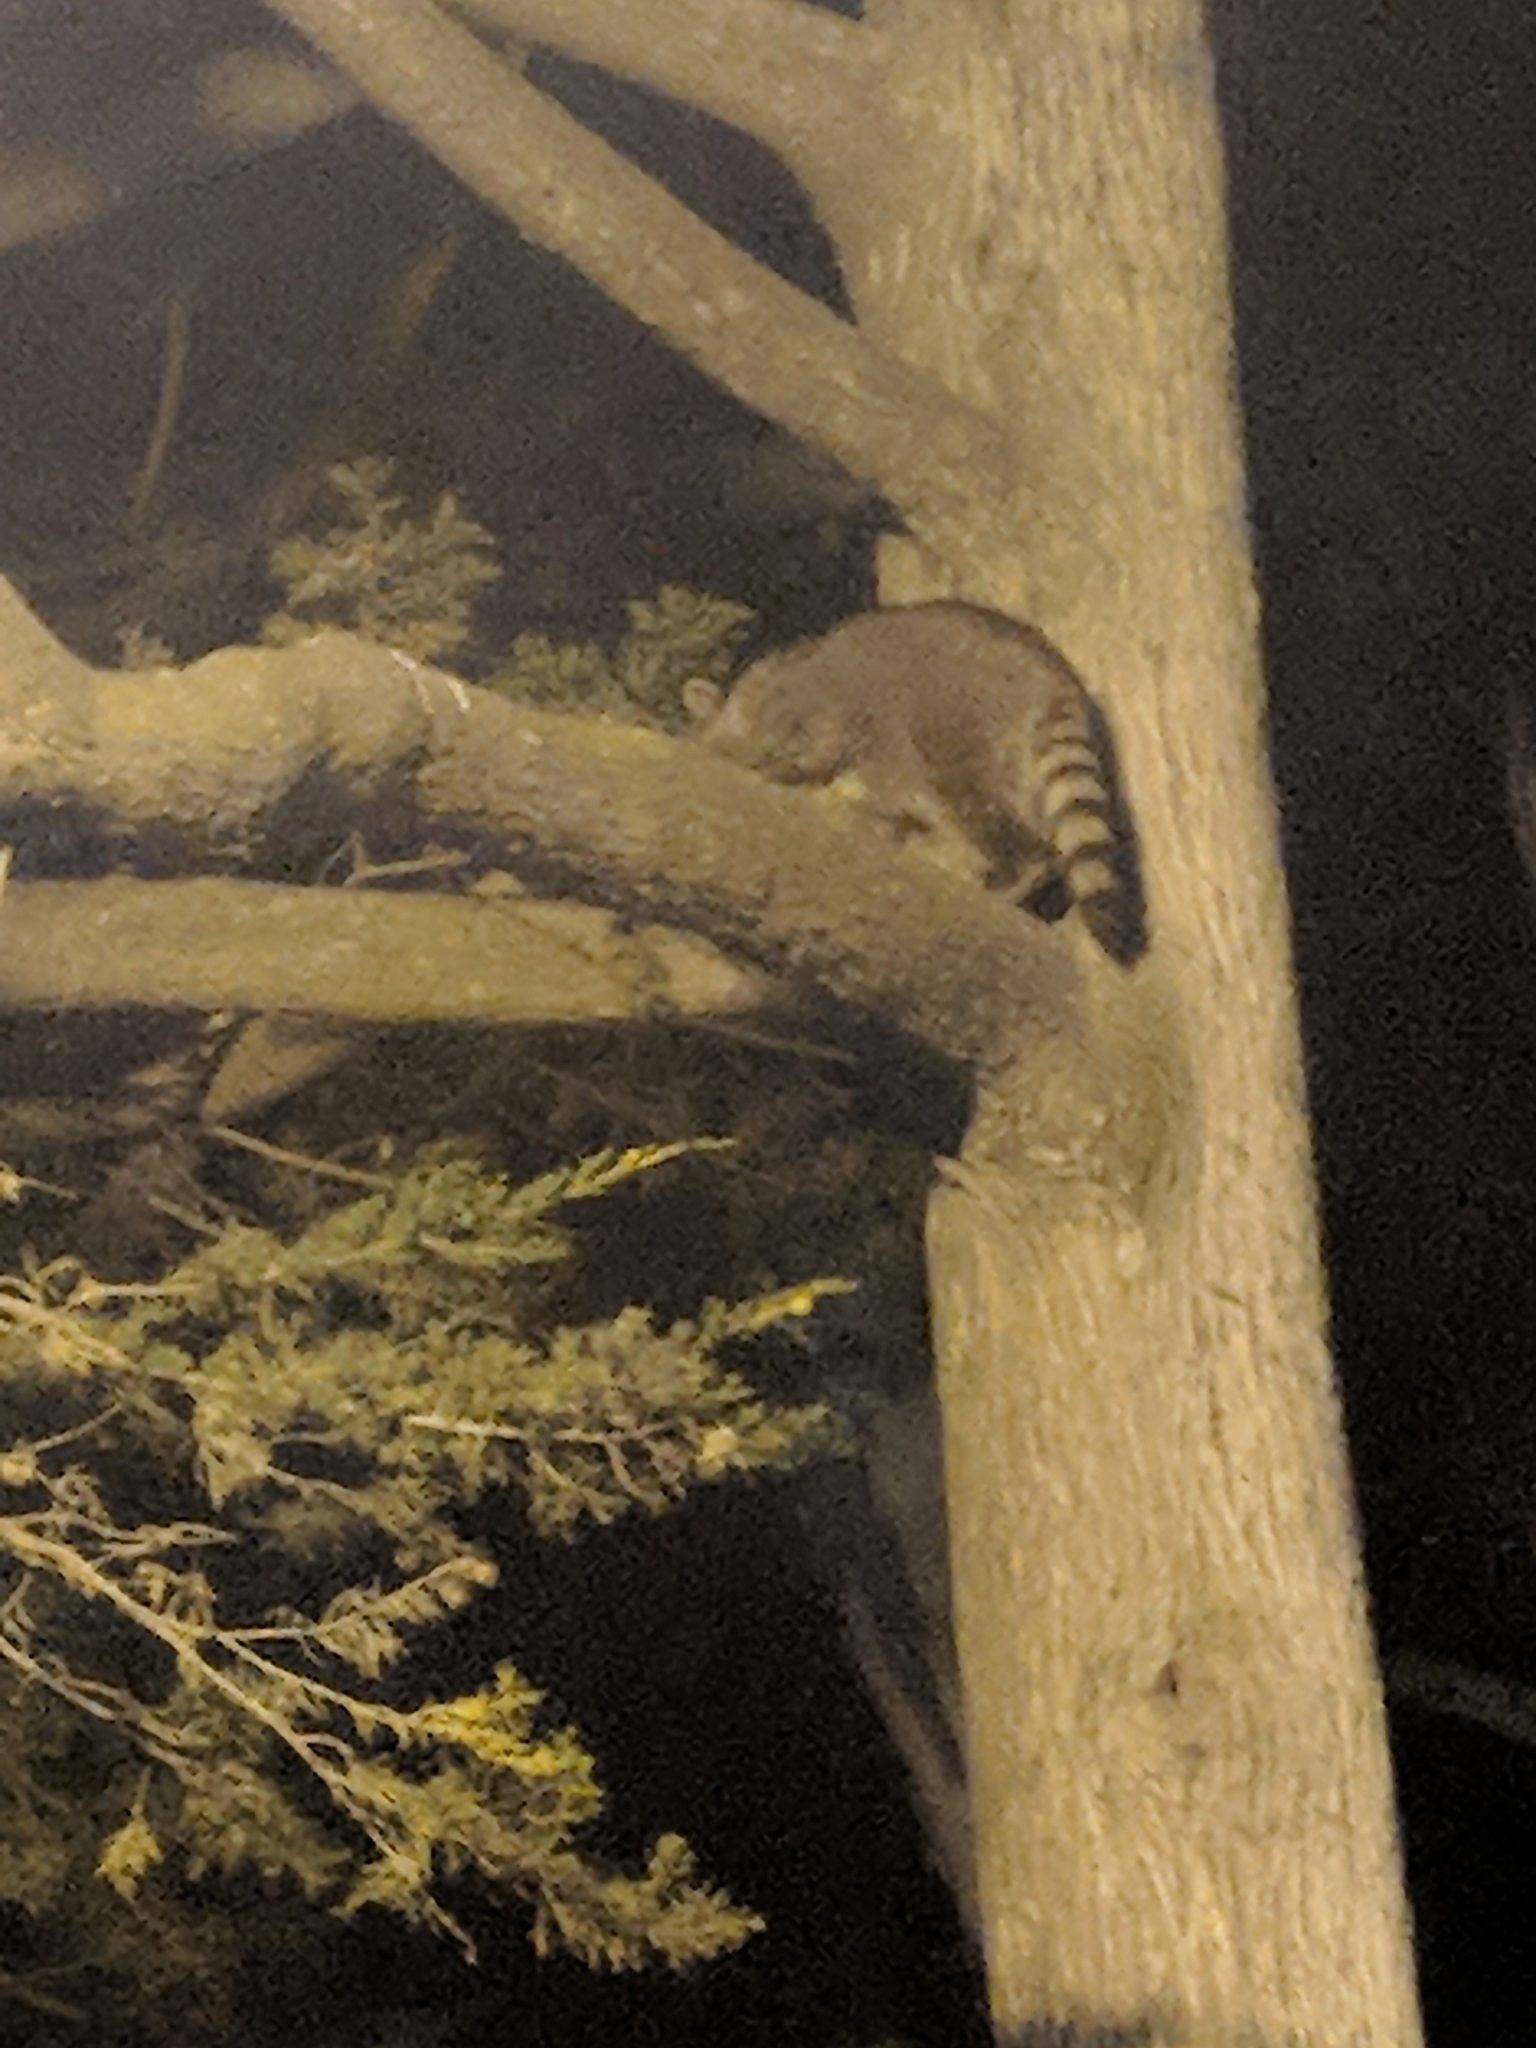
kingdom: Animalia
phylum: Chordata
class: Mammalia
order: Carnivora
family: Procyonidae
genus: Procyon
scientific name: Procyon lotor
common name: Raccoon
